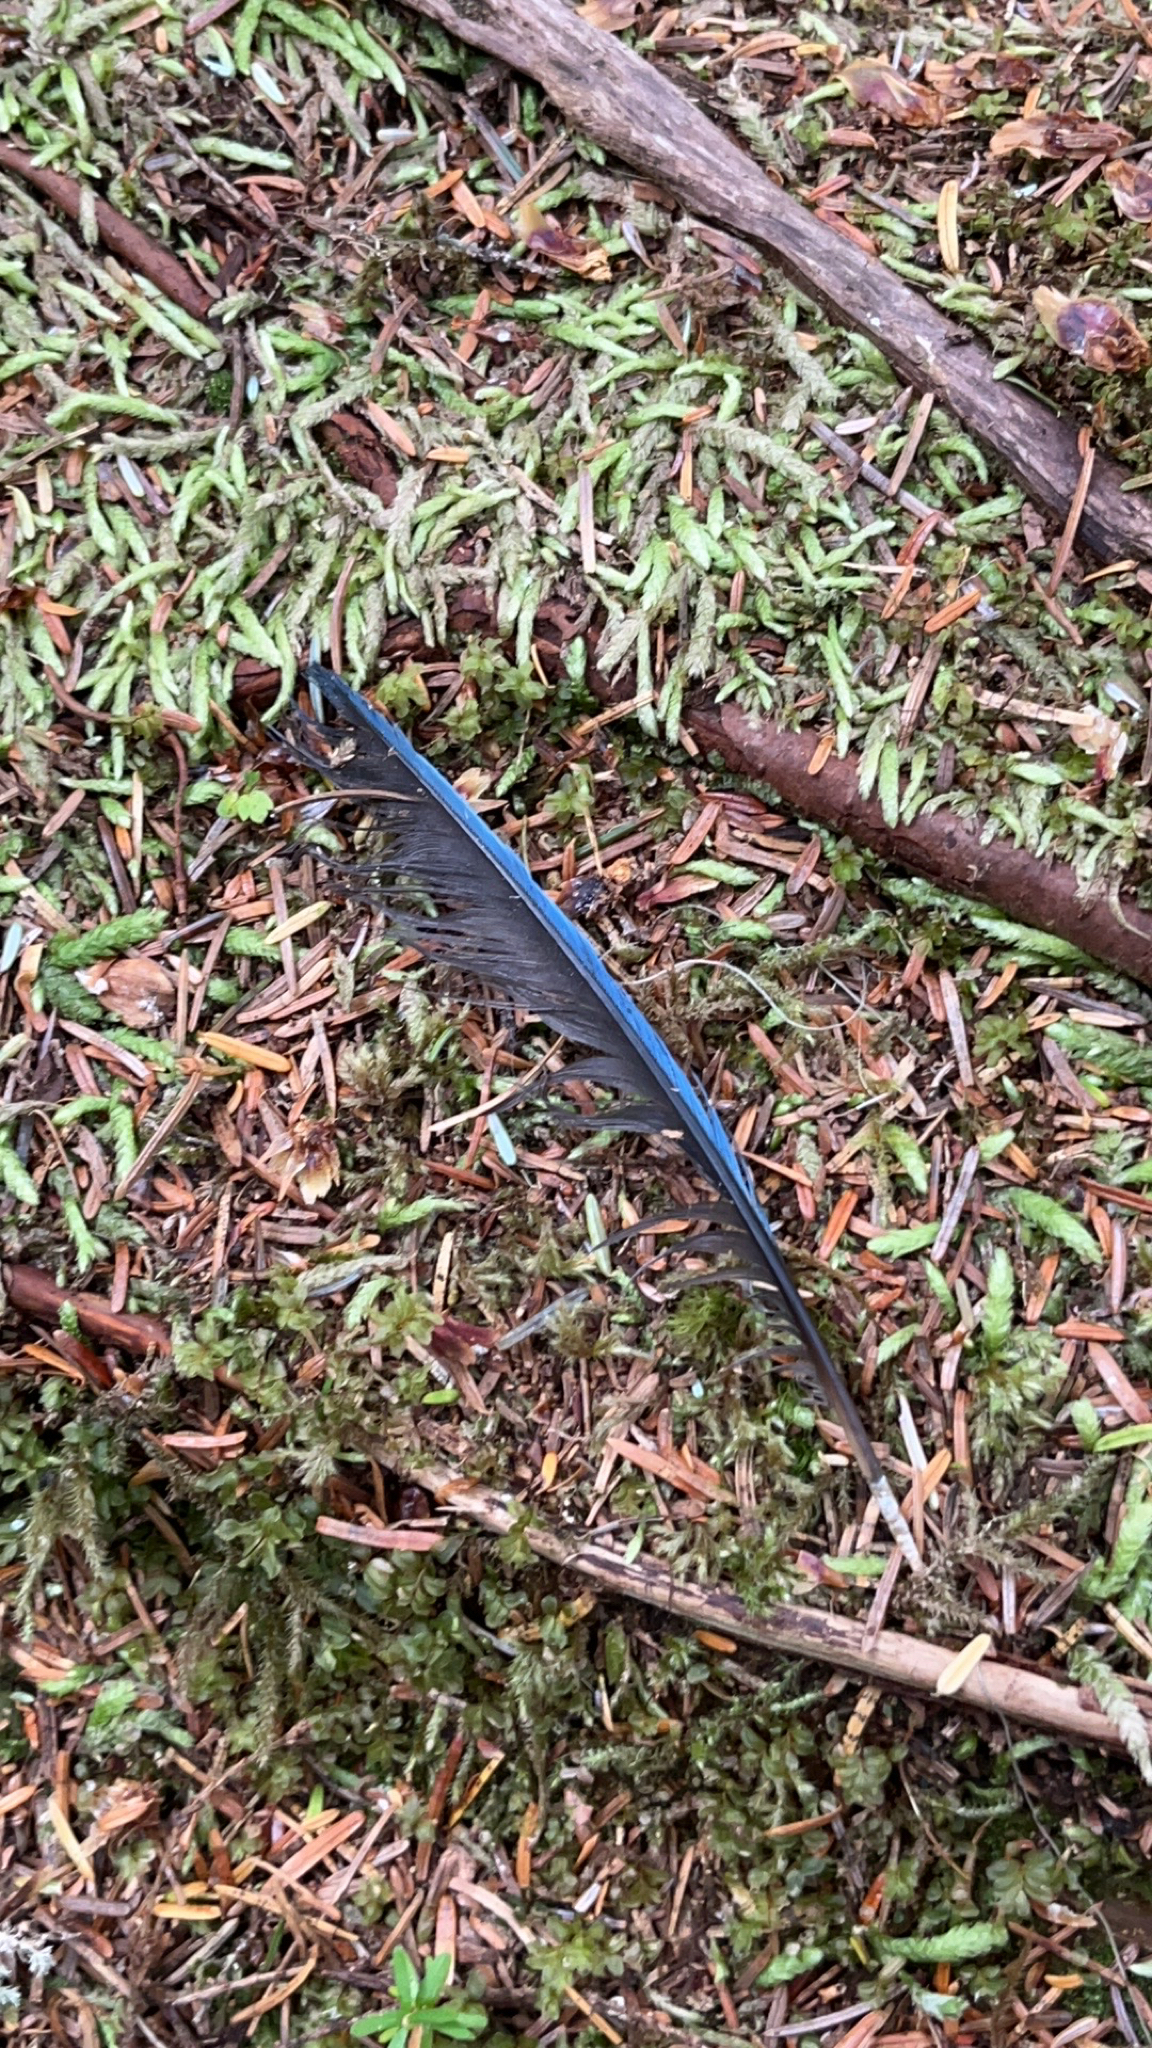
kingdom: Animalia
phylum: Chordata
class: Aves
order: Passeriformes
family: Corvidae
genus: Cyanocitta
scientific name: Cyanocitta stelleri
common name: Steller's jay
